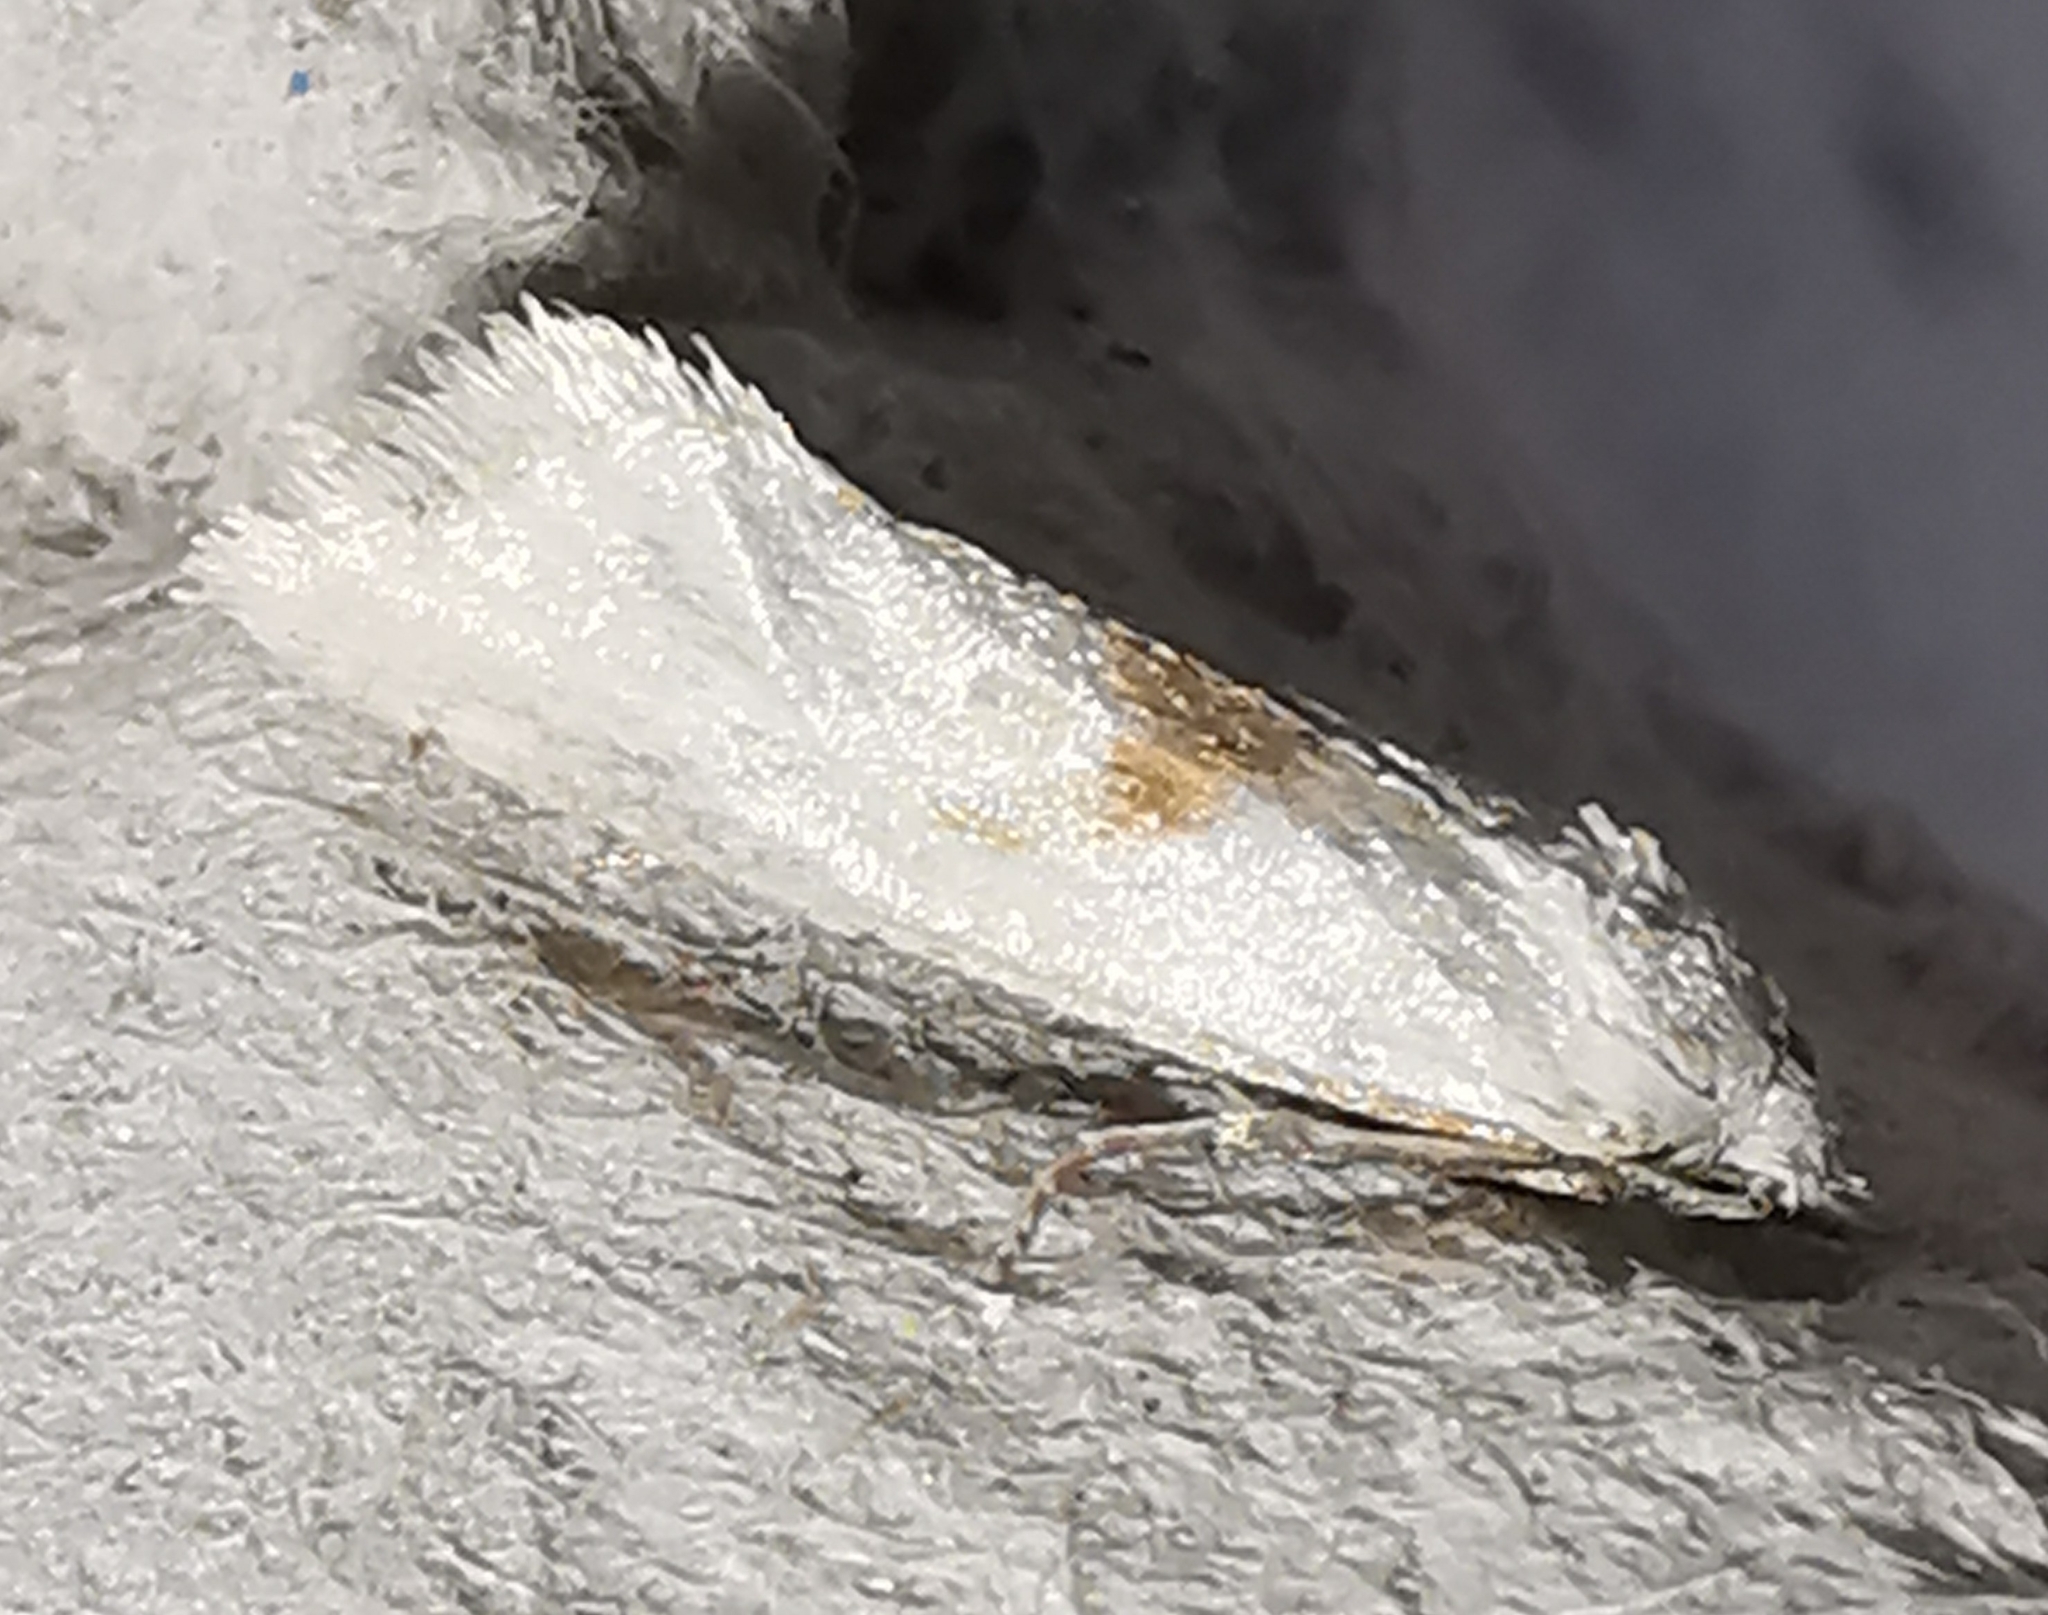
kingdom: Animalia
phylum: Arthropoda
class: Insecta
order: Lepidoptera
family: Tortricidae
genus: Cochylimorpha
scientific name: Cochylimorpha straminea
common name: Straw conch
